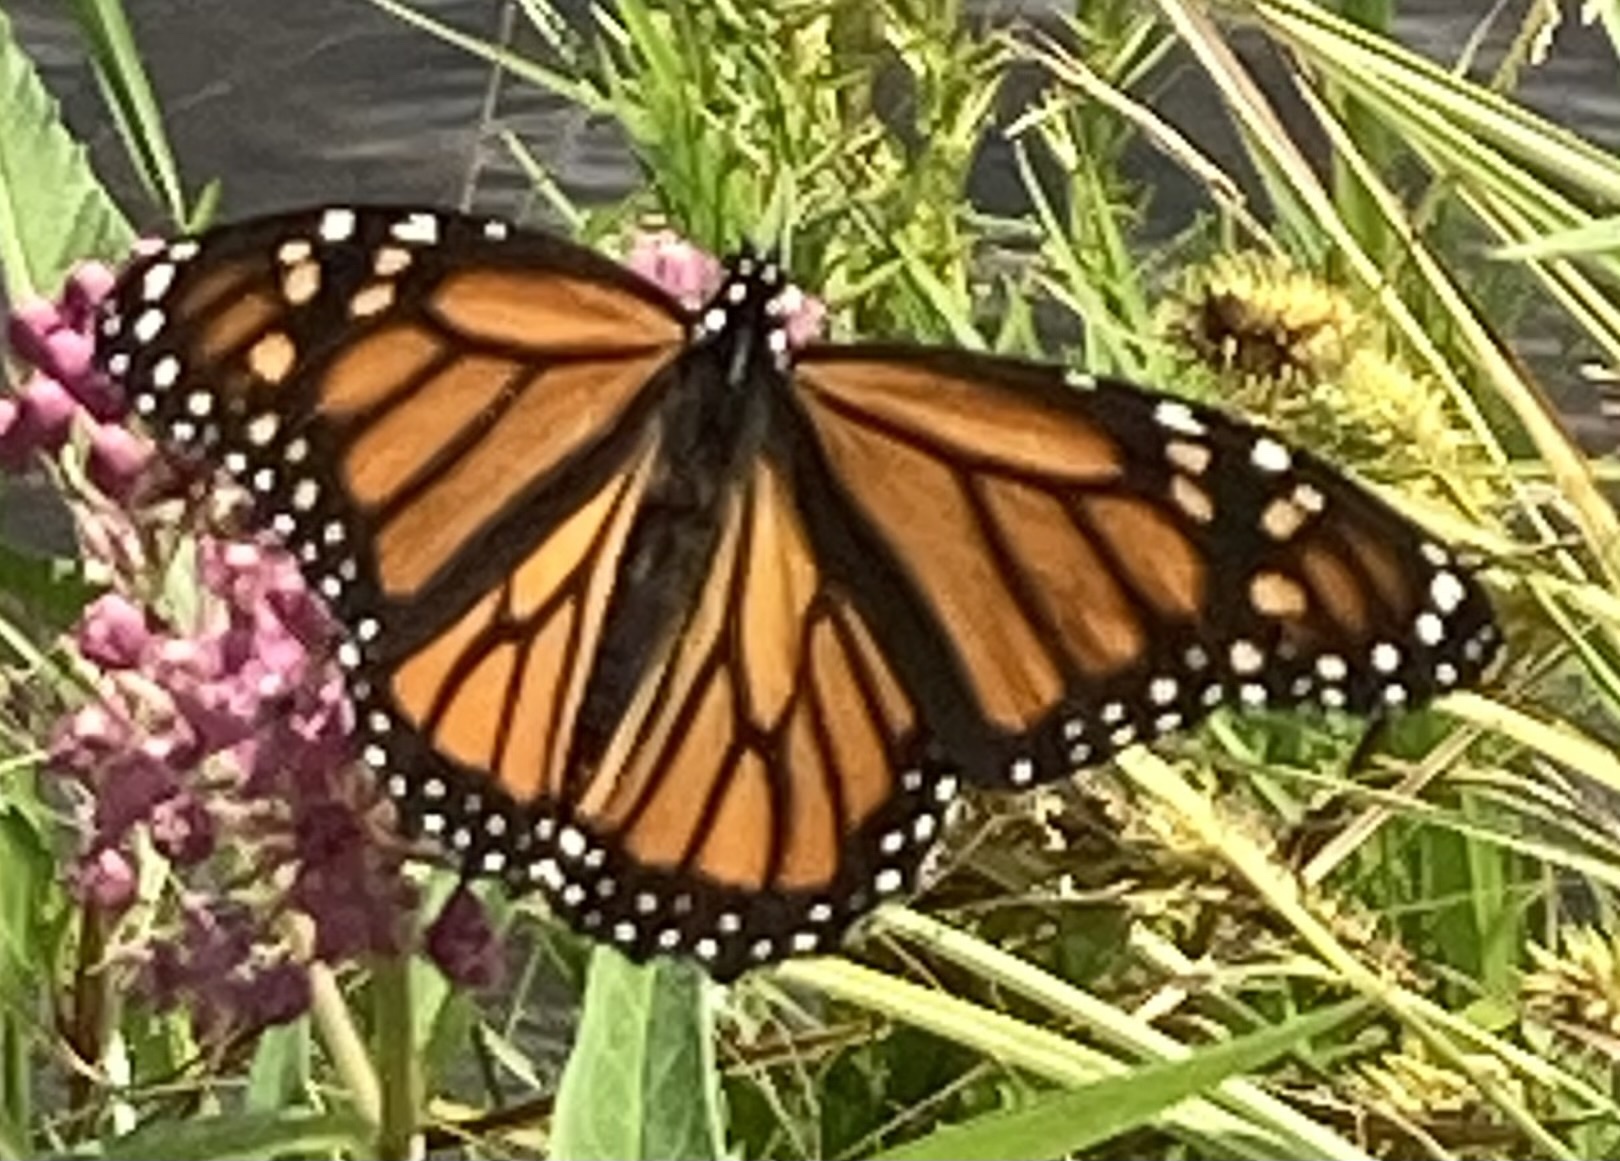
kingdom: Animalia
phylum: Arthropoda
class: Insecta
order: Lepidoptera
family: Nymphalidae
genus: Danaus
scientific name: Danaus plexippus
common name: Monarch
